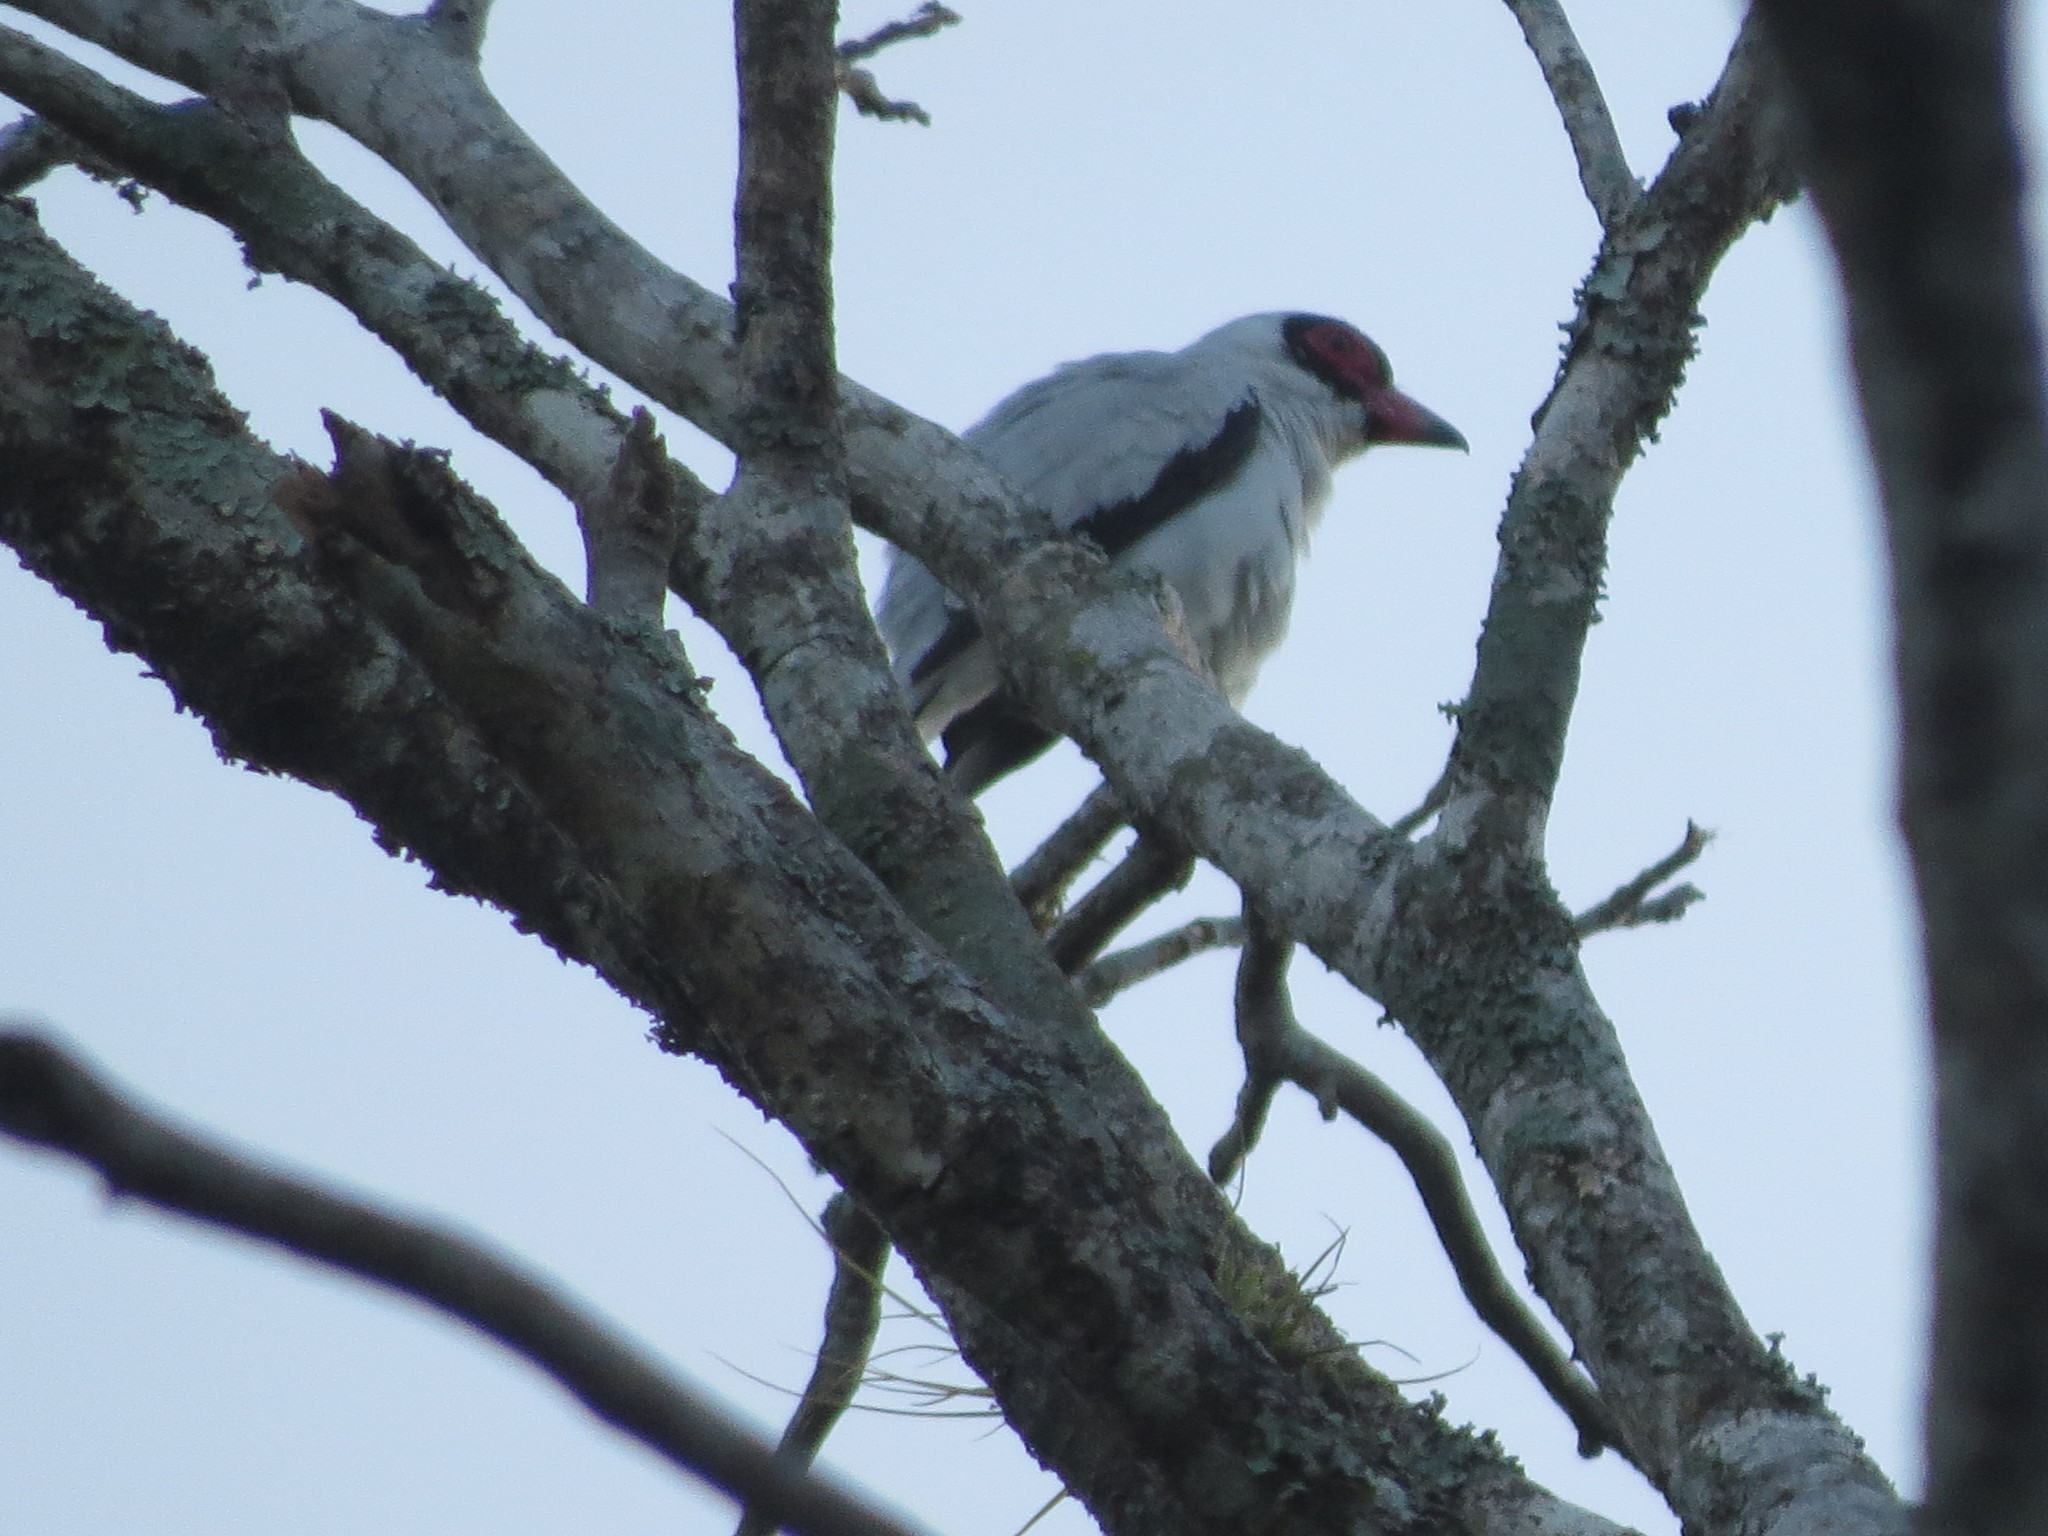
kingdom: Animalia
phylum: Chordata
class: Aves
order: Passeriformes
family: Cotingidae
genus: Tityra
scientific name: Tityra semifasciata
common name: Masked tityra
